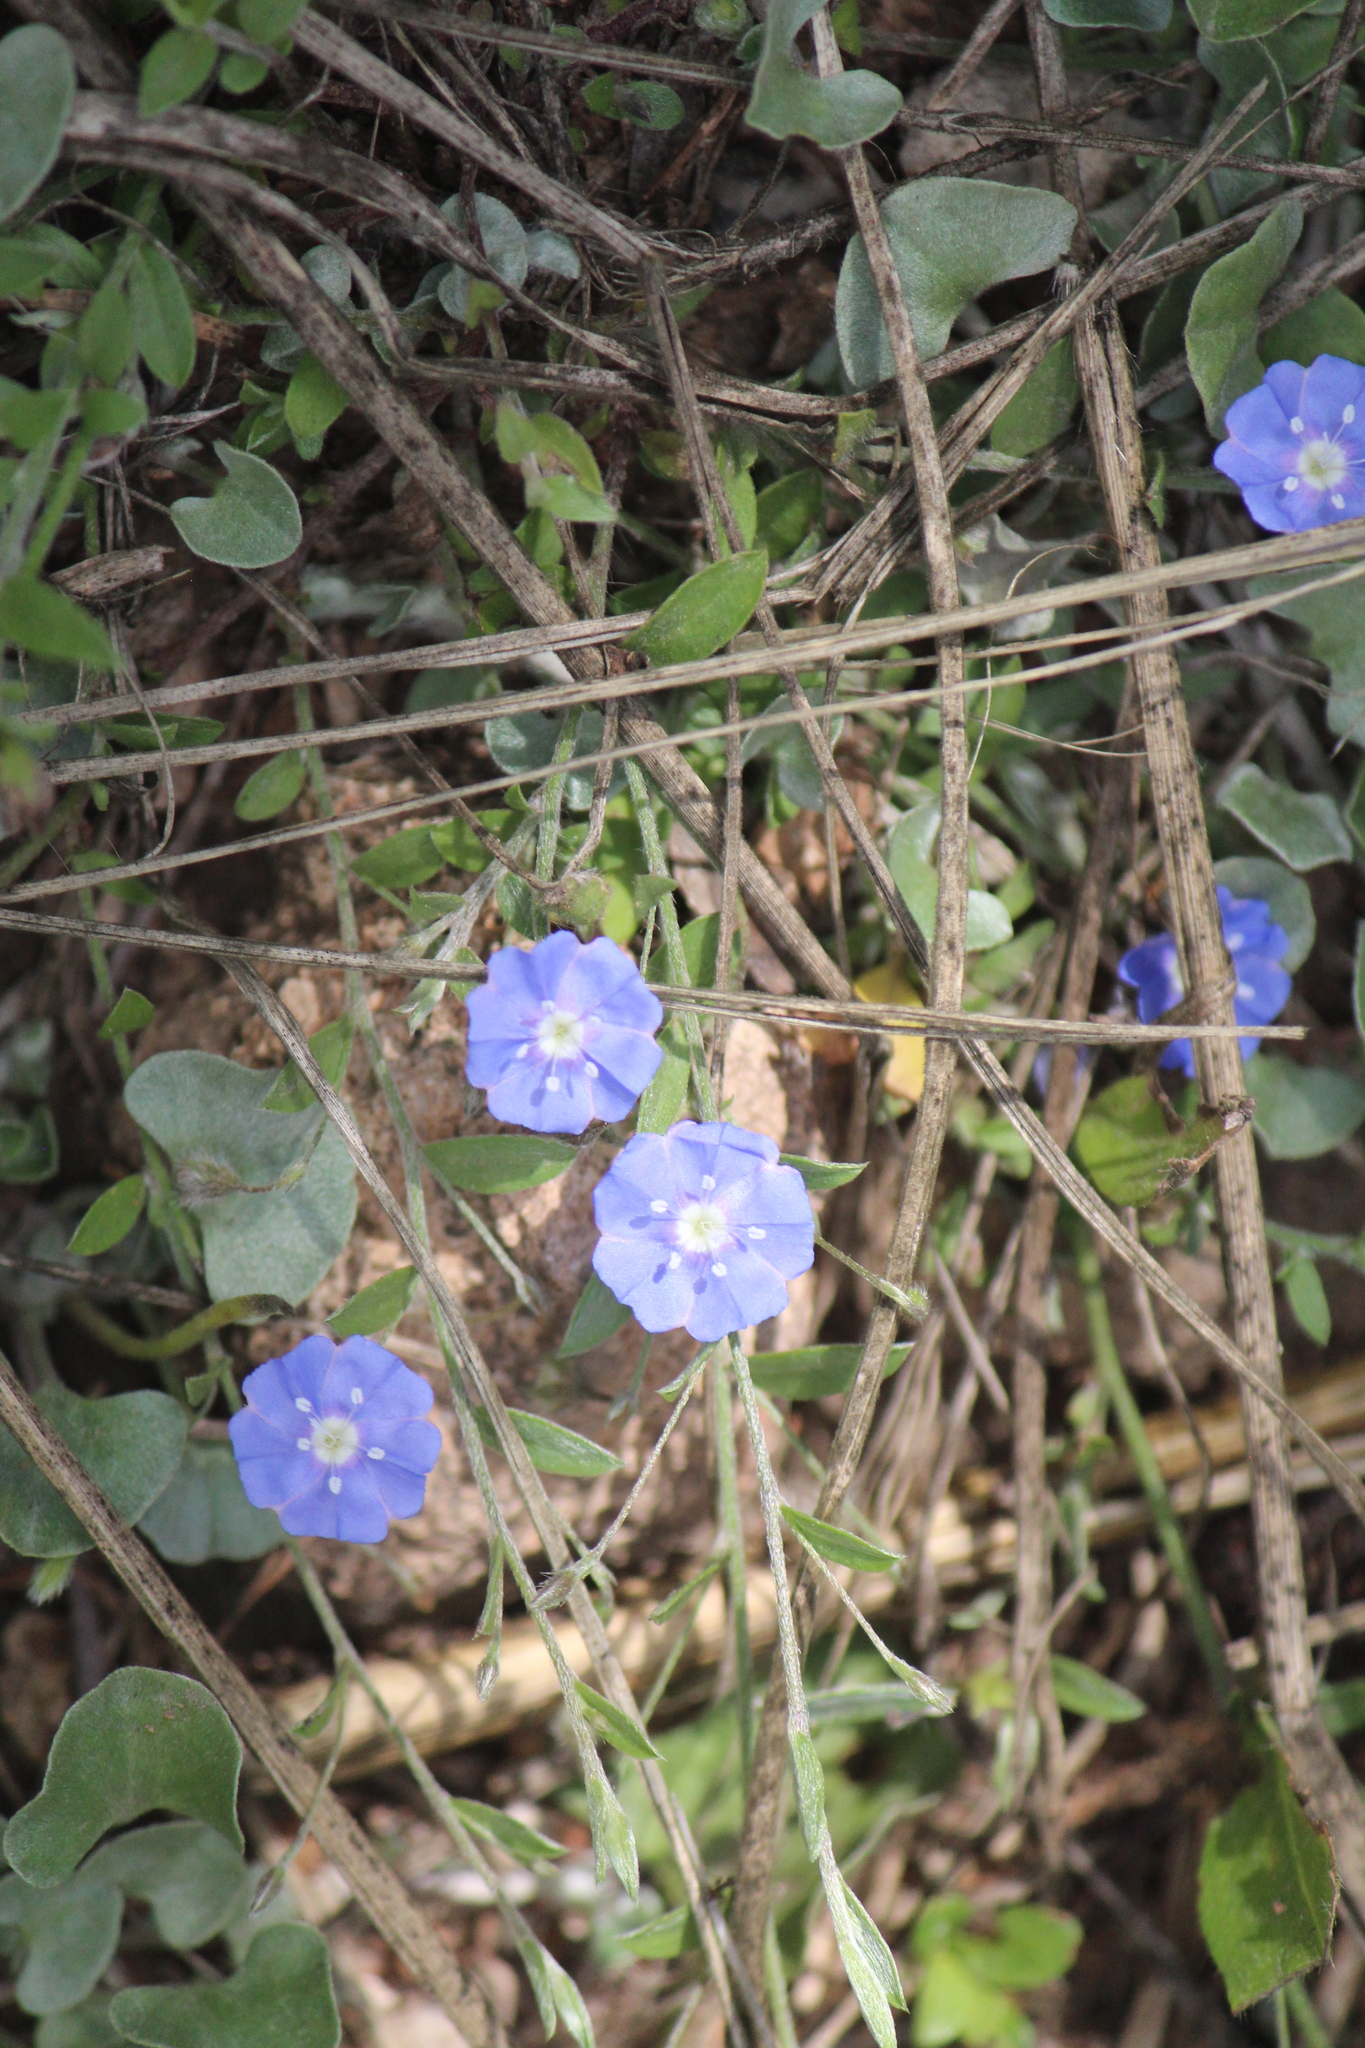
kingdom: Plantae
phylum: Tracheophyta
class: Magnoliopsida
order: Solanales
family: Convolvulaceae
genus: Evolvulus
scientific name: Evolvulus alsinoides
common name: Slender dwarf morning-glory
